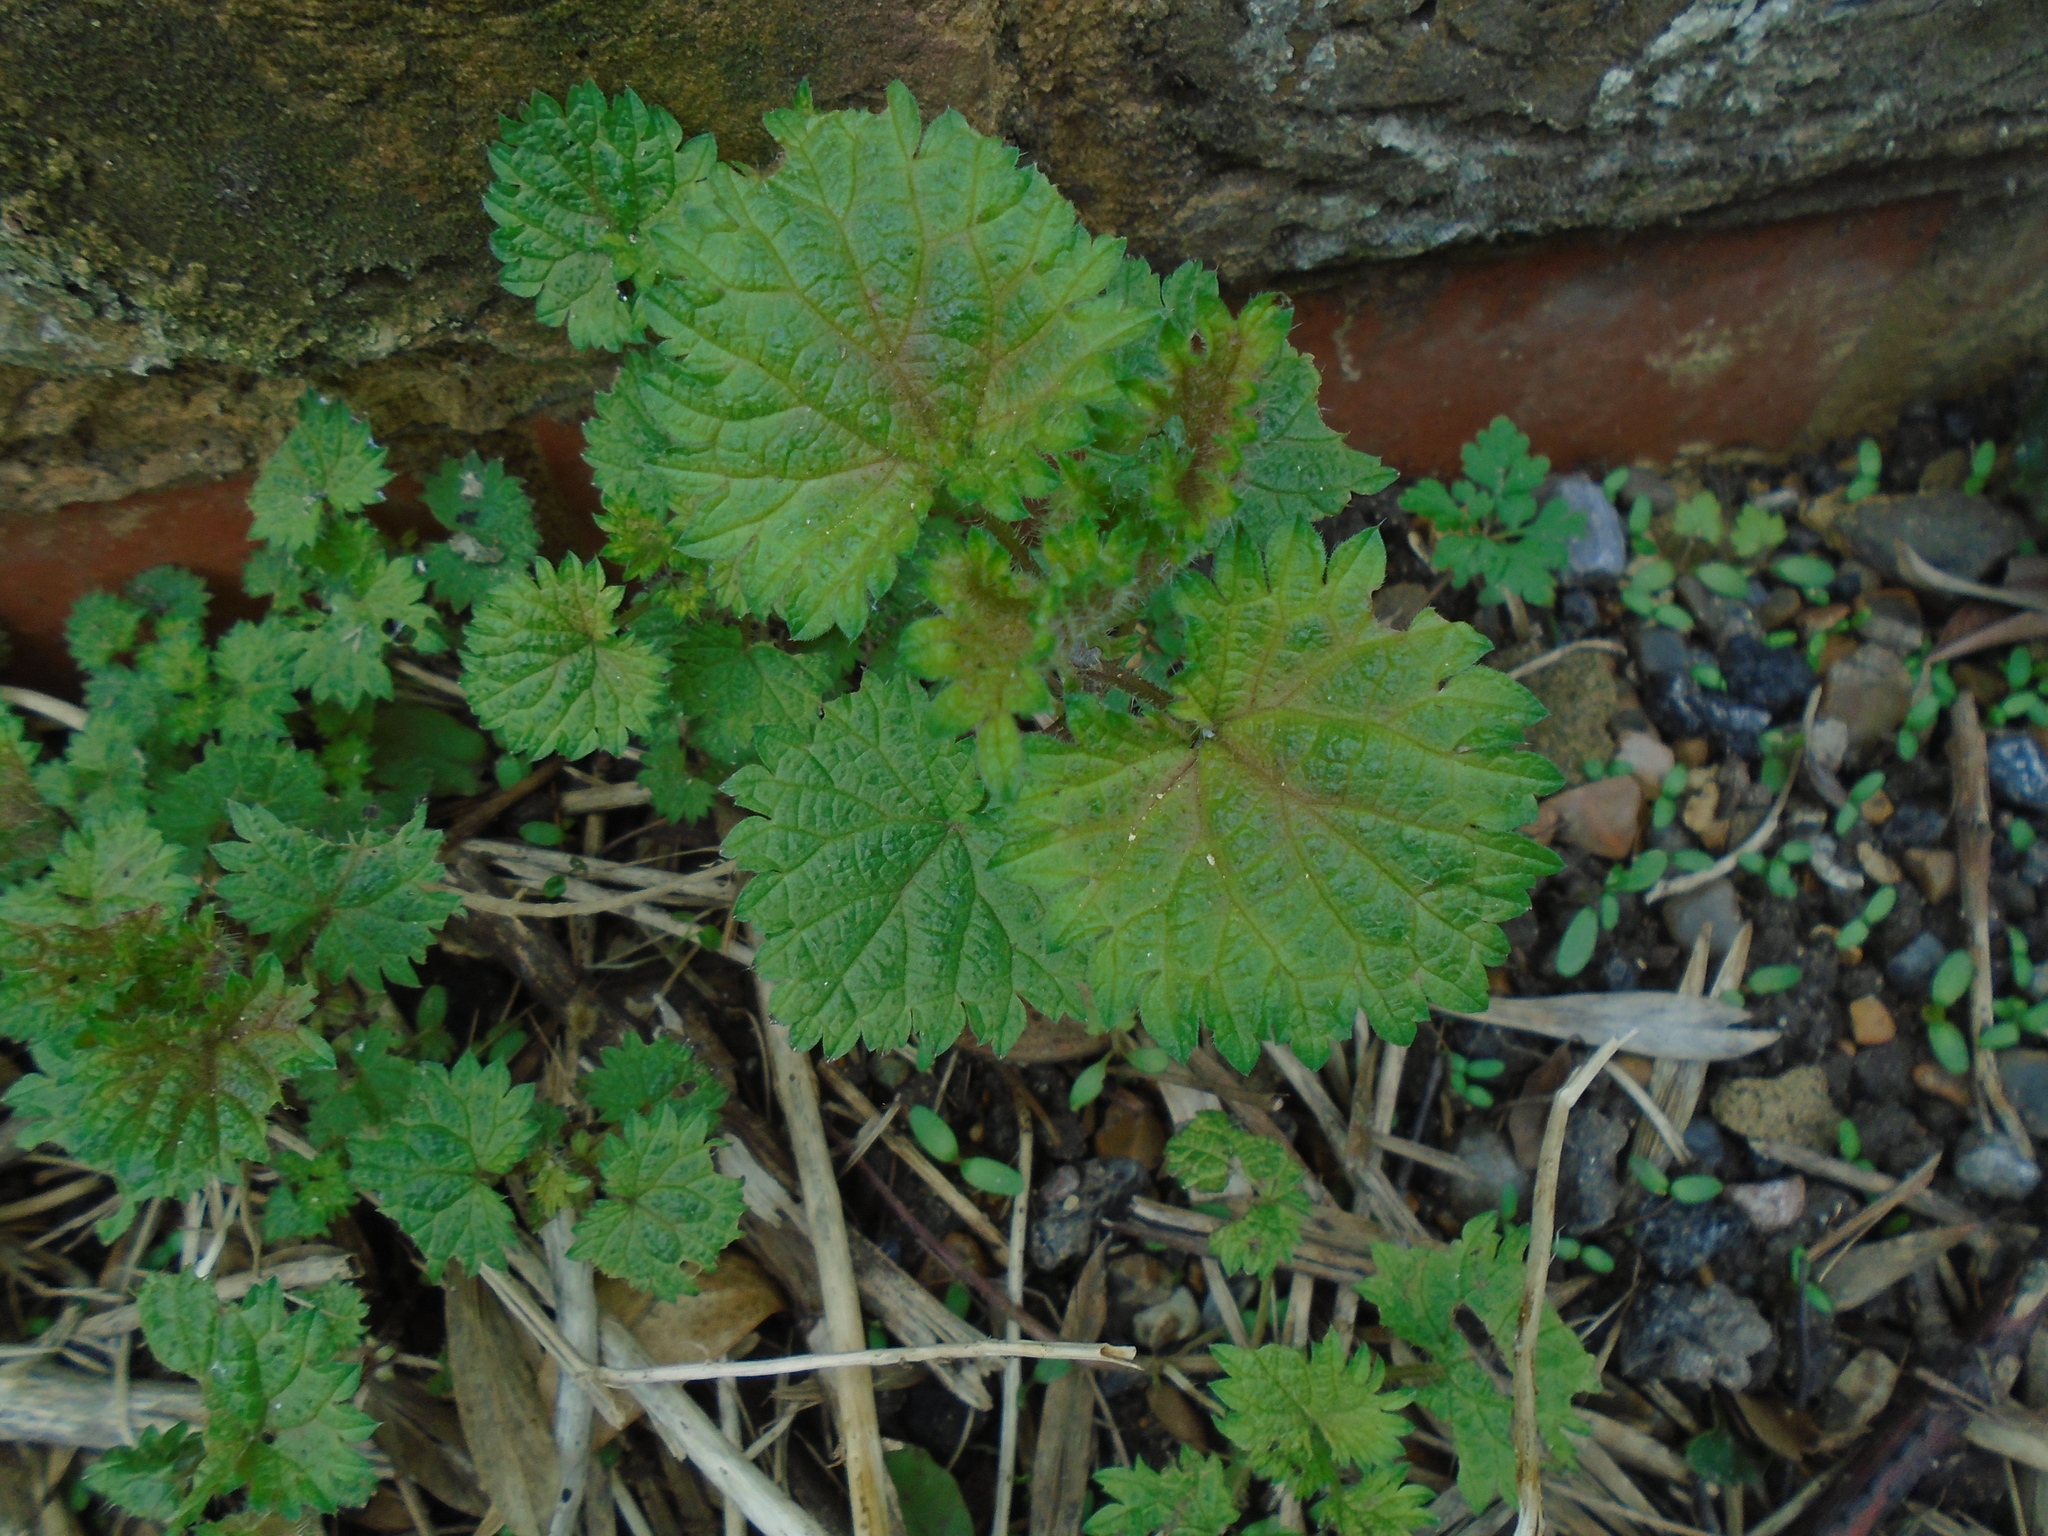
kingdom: Plantae
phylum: Tracheophyta
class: Magnoliopsida
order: Rosales
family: Urticaceae
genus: Urtica
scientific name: Urtica dioica
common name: Common nettle
